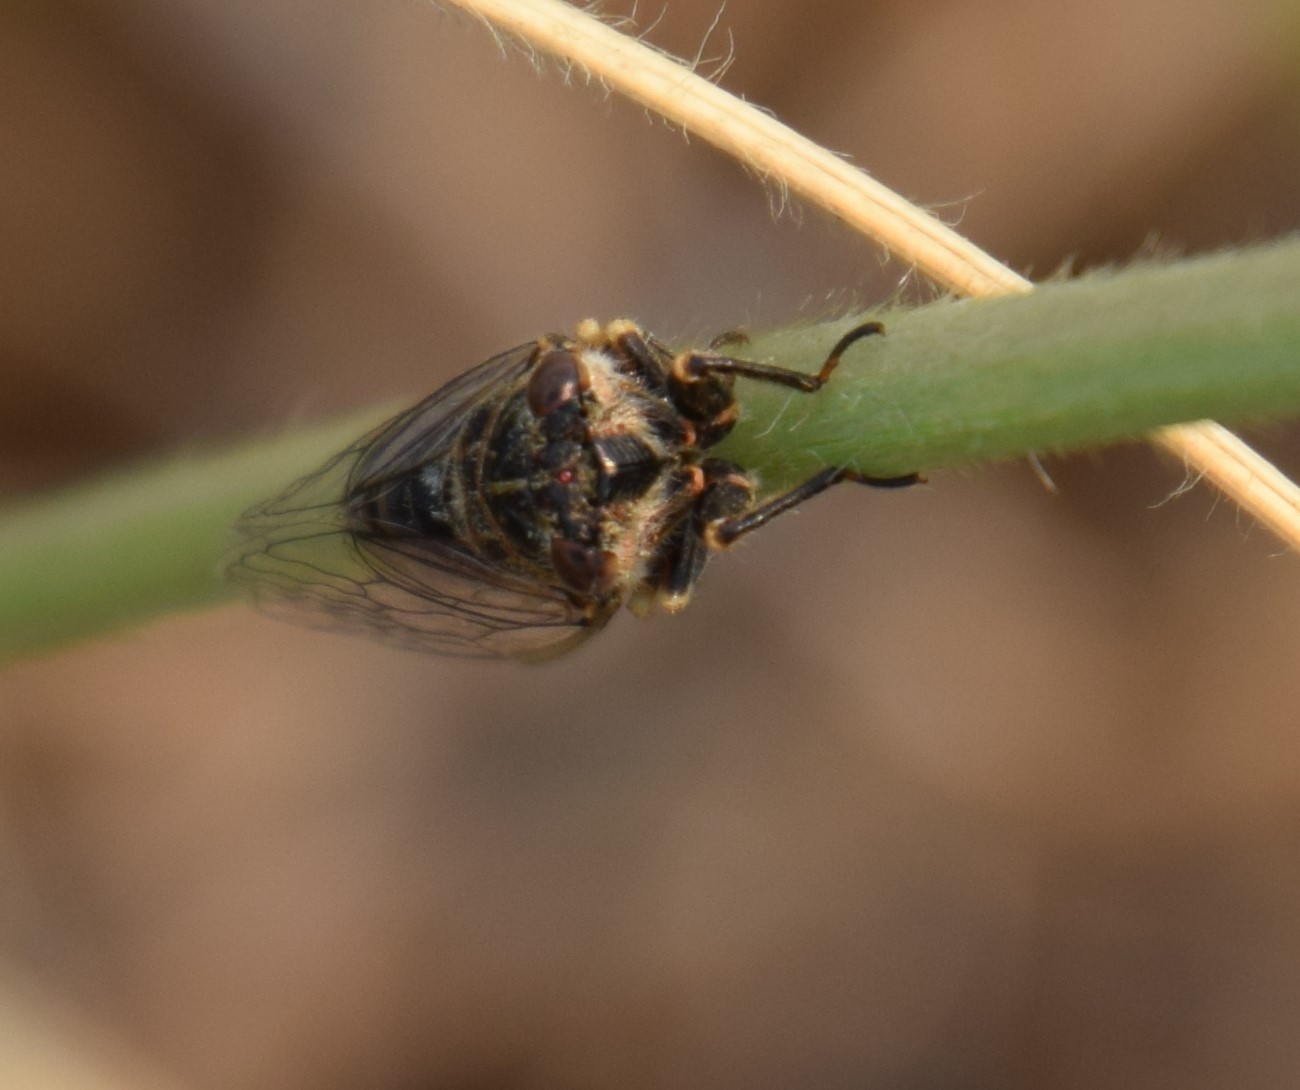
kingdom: Animalia
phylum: Arthropoda
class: Insecta
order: Hemiptera
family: Cicadidae
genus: Haemopsalta
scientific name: Haemopsalta aktites
